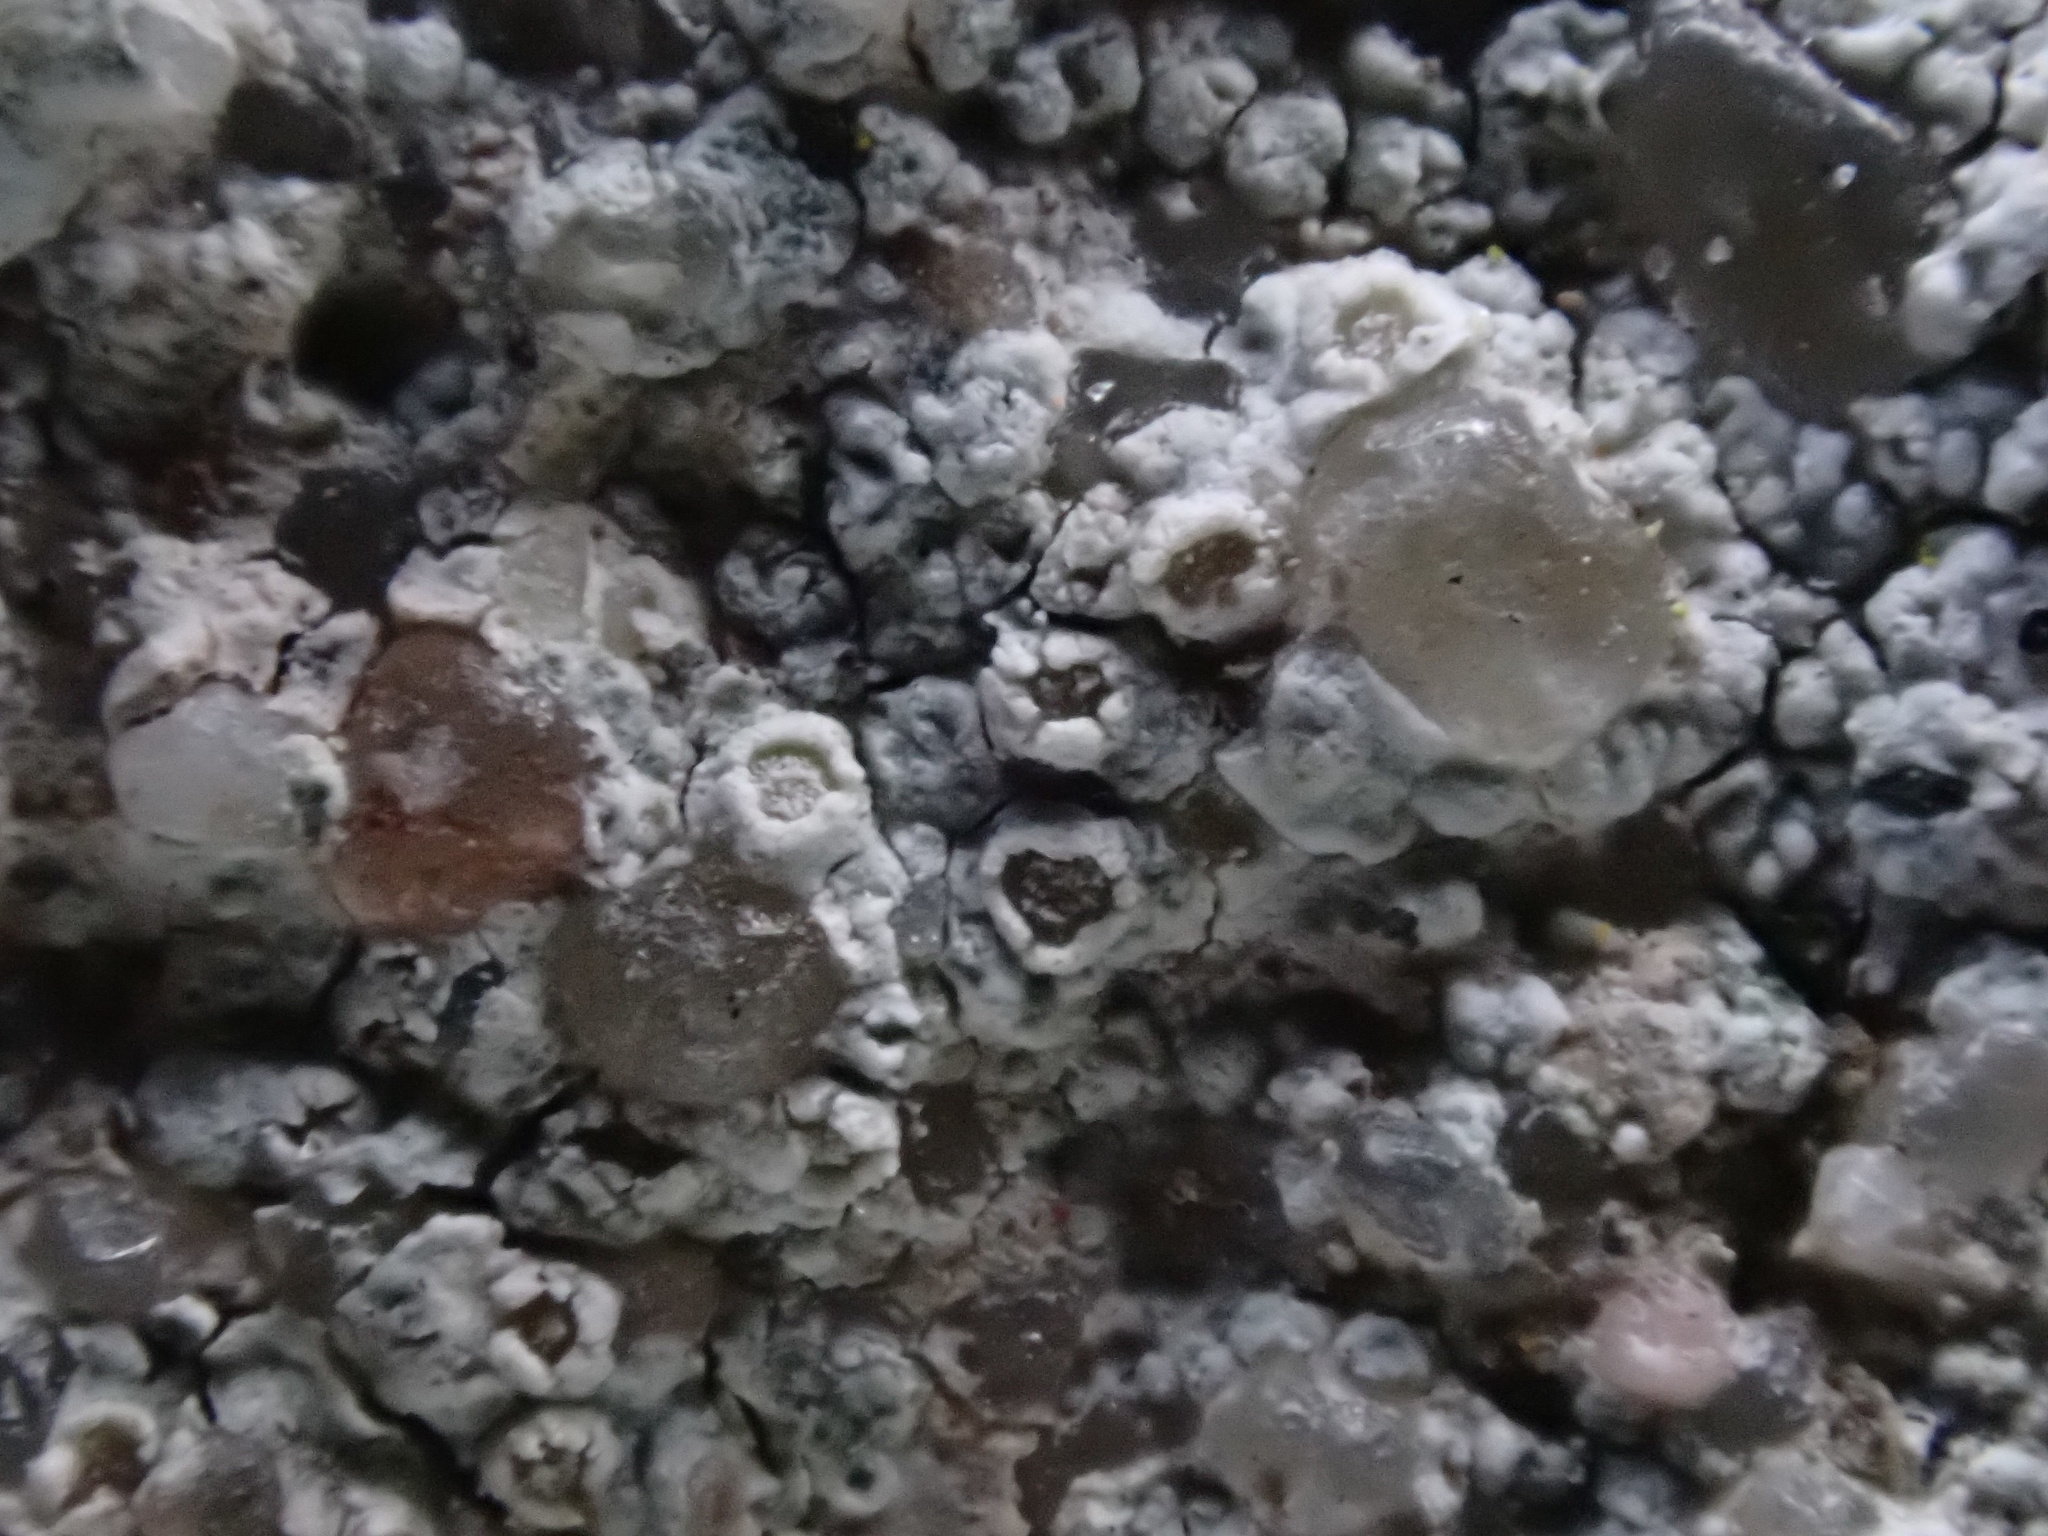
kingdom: Fungi
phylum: Ascomycota
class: Lecanoromycetes
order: Lecanorales
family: Lecanoraceae
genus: Polyozosia
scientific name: Polyozosia albescens
